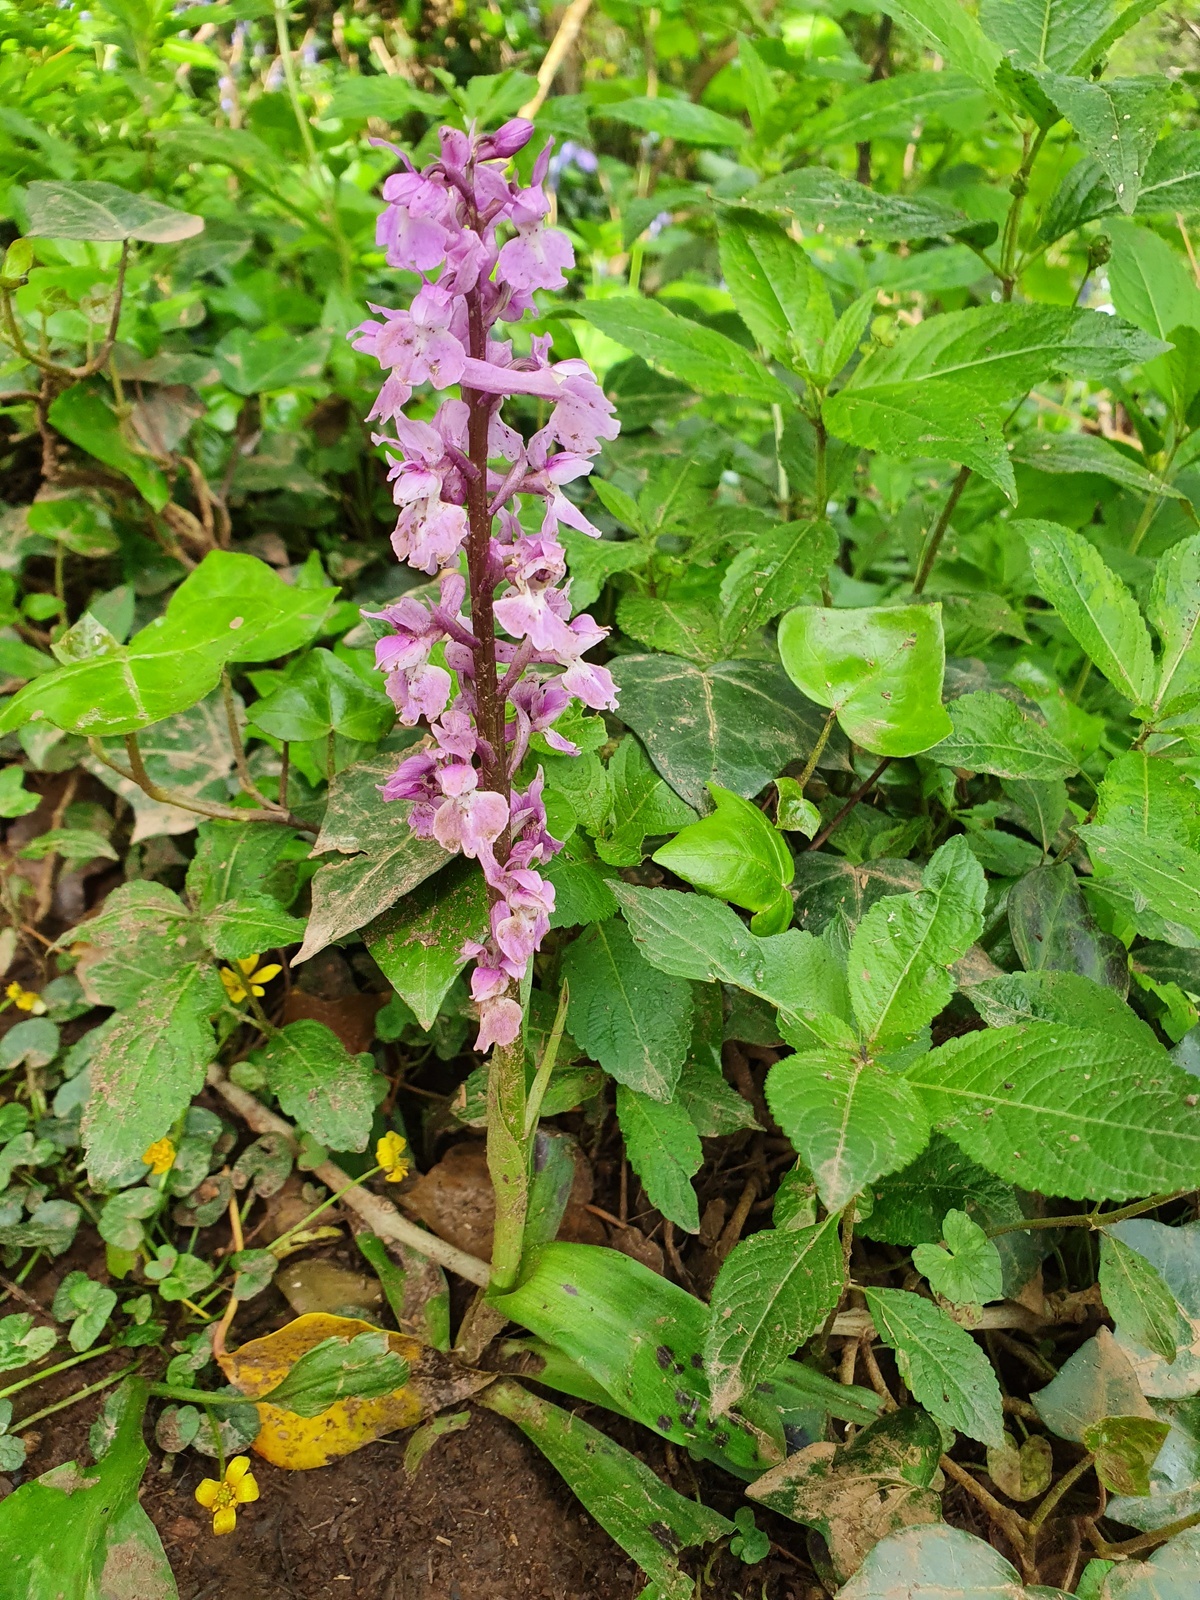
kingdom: Plantae
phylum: Tracheophyta
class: Liliopsida
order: Asparagales
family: Orchidaceae
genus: Orchis
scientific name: Orchis mascula
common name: Early-purple orchid
